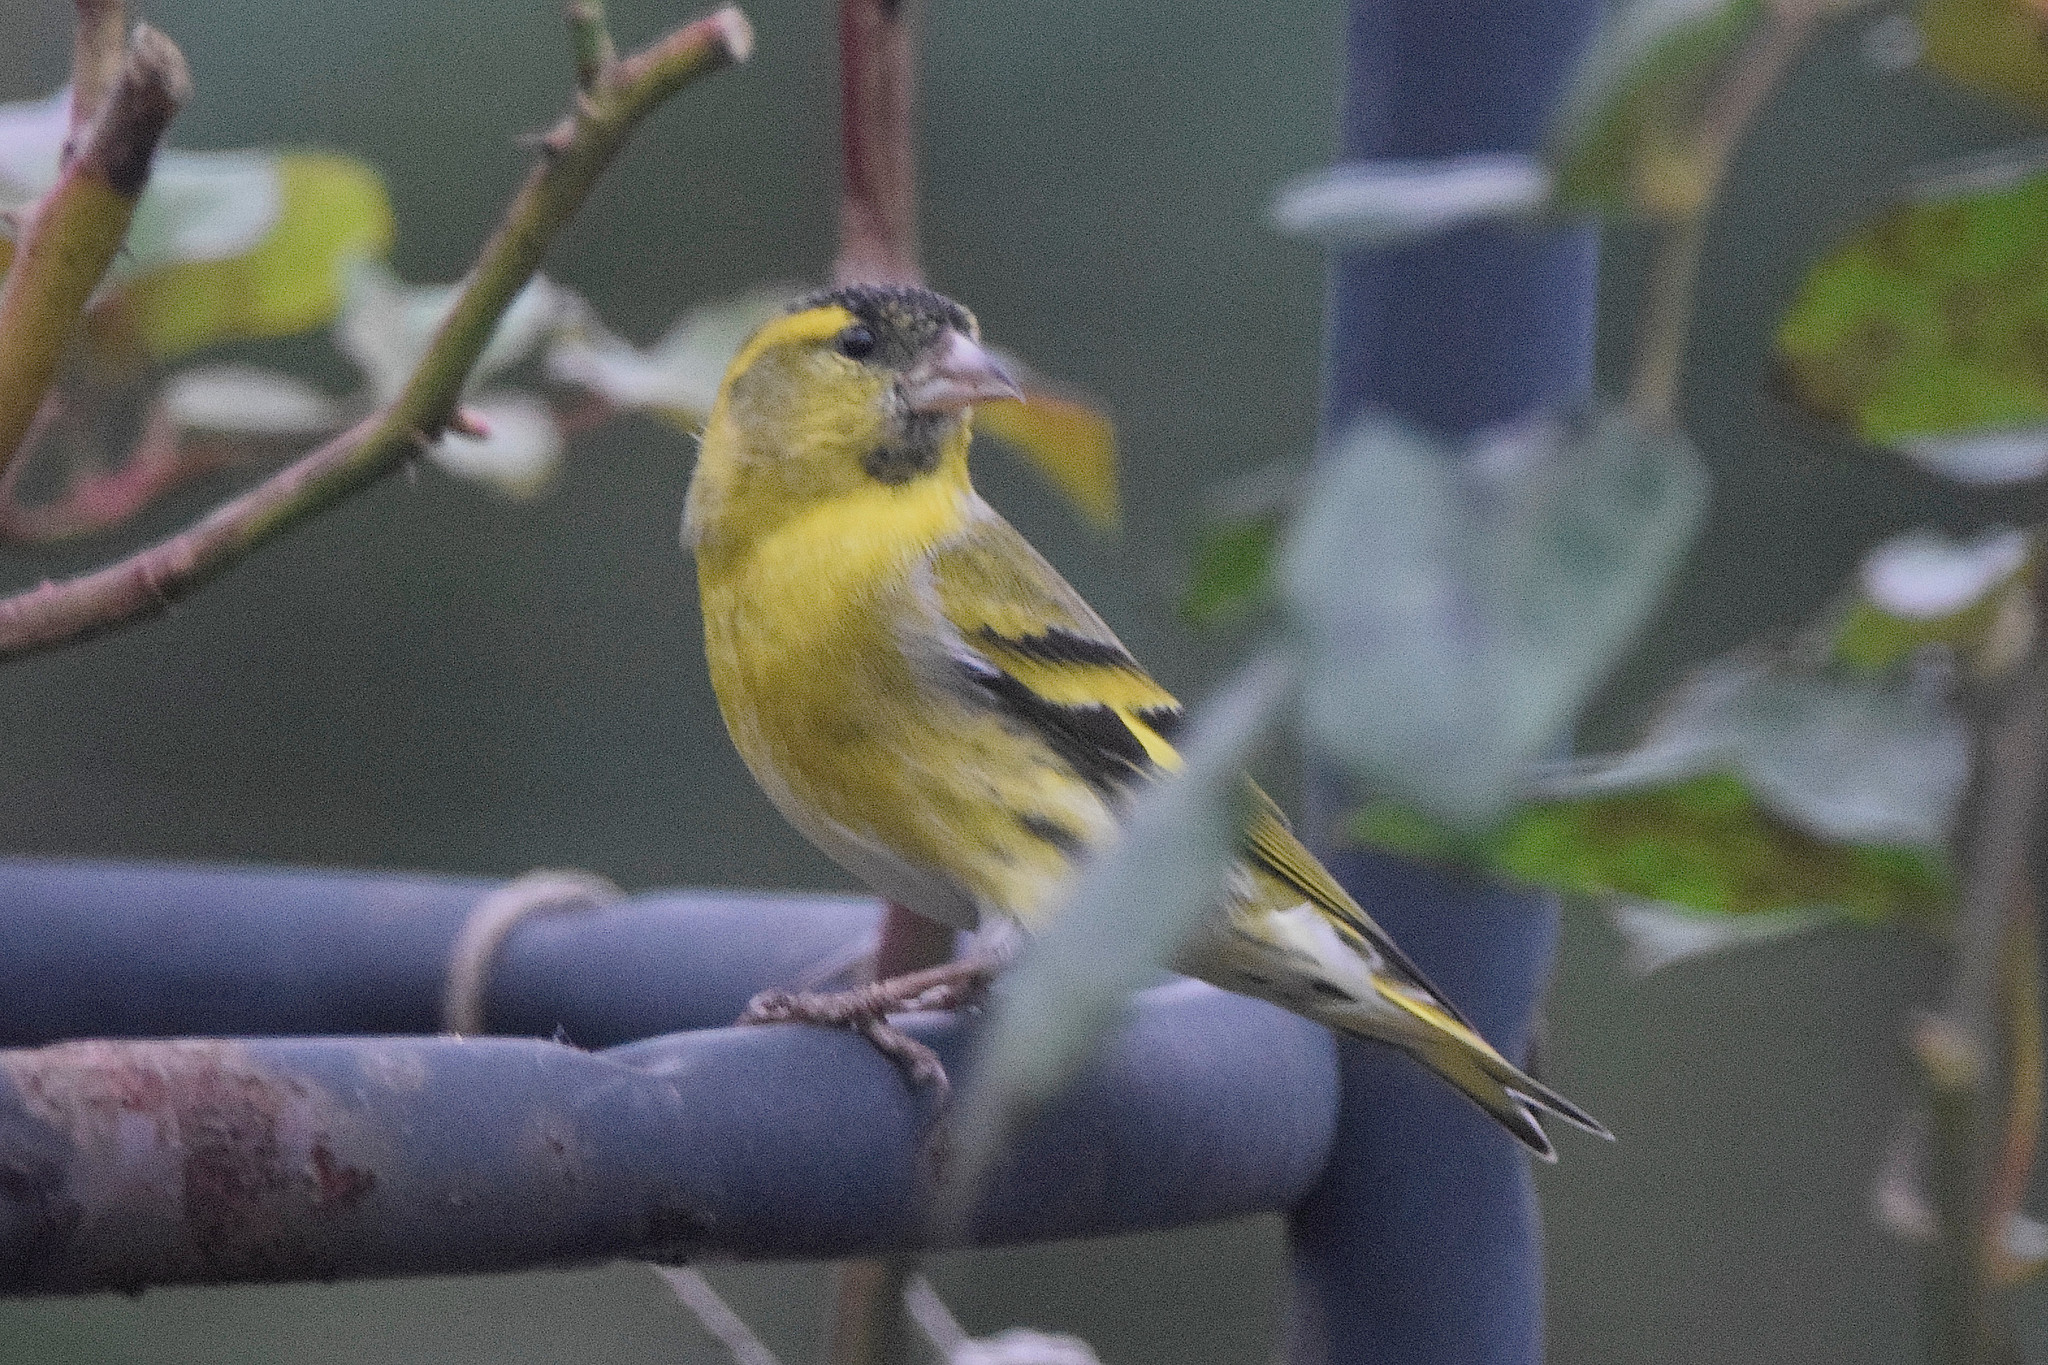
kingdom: Animalia
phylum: Chordata
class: Aves
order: Passeriformes
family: Fringillidae
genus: Spinus
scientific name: Spinus spinus
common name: Eurasian siskin
